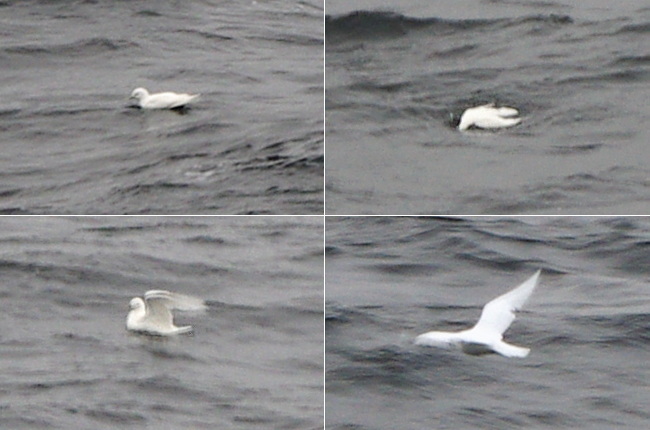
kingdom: Animalia
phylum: Chordata
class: Aves
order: Charadriiformes
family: Laridae
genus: Pagophila
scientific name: Pagophila eburnea
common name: Ivory gull
